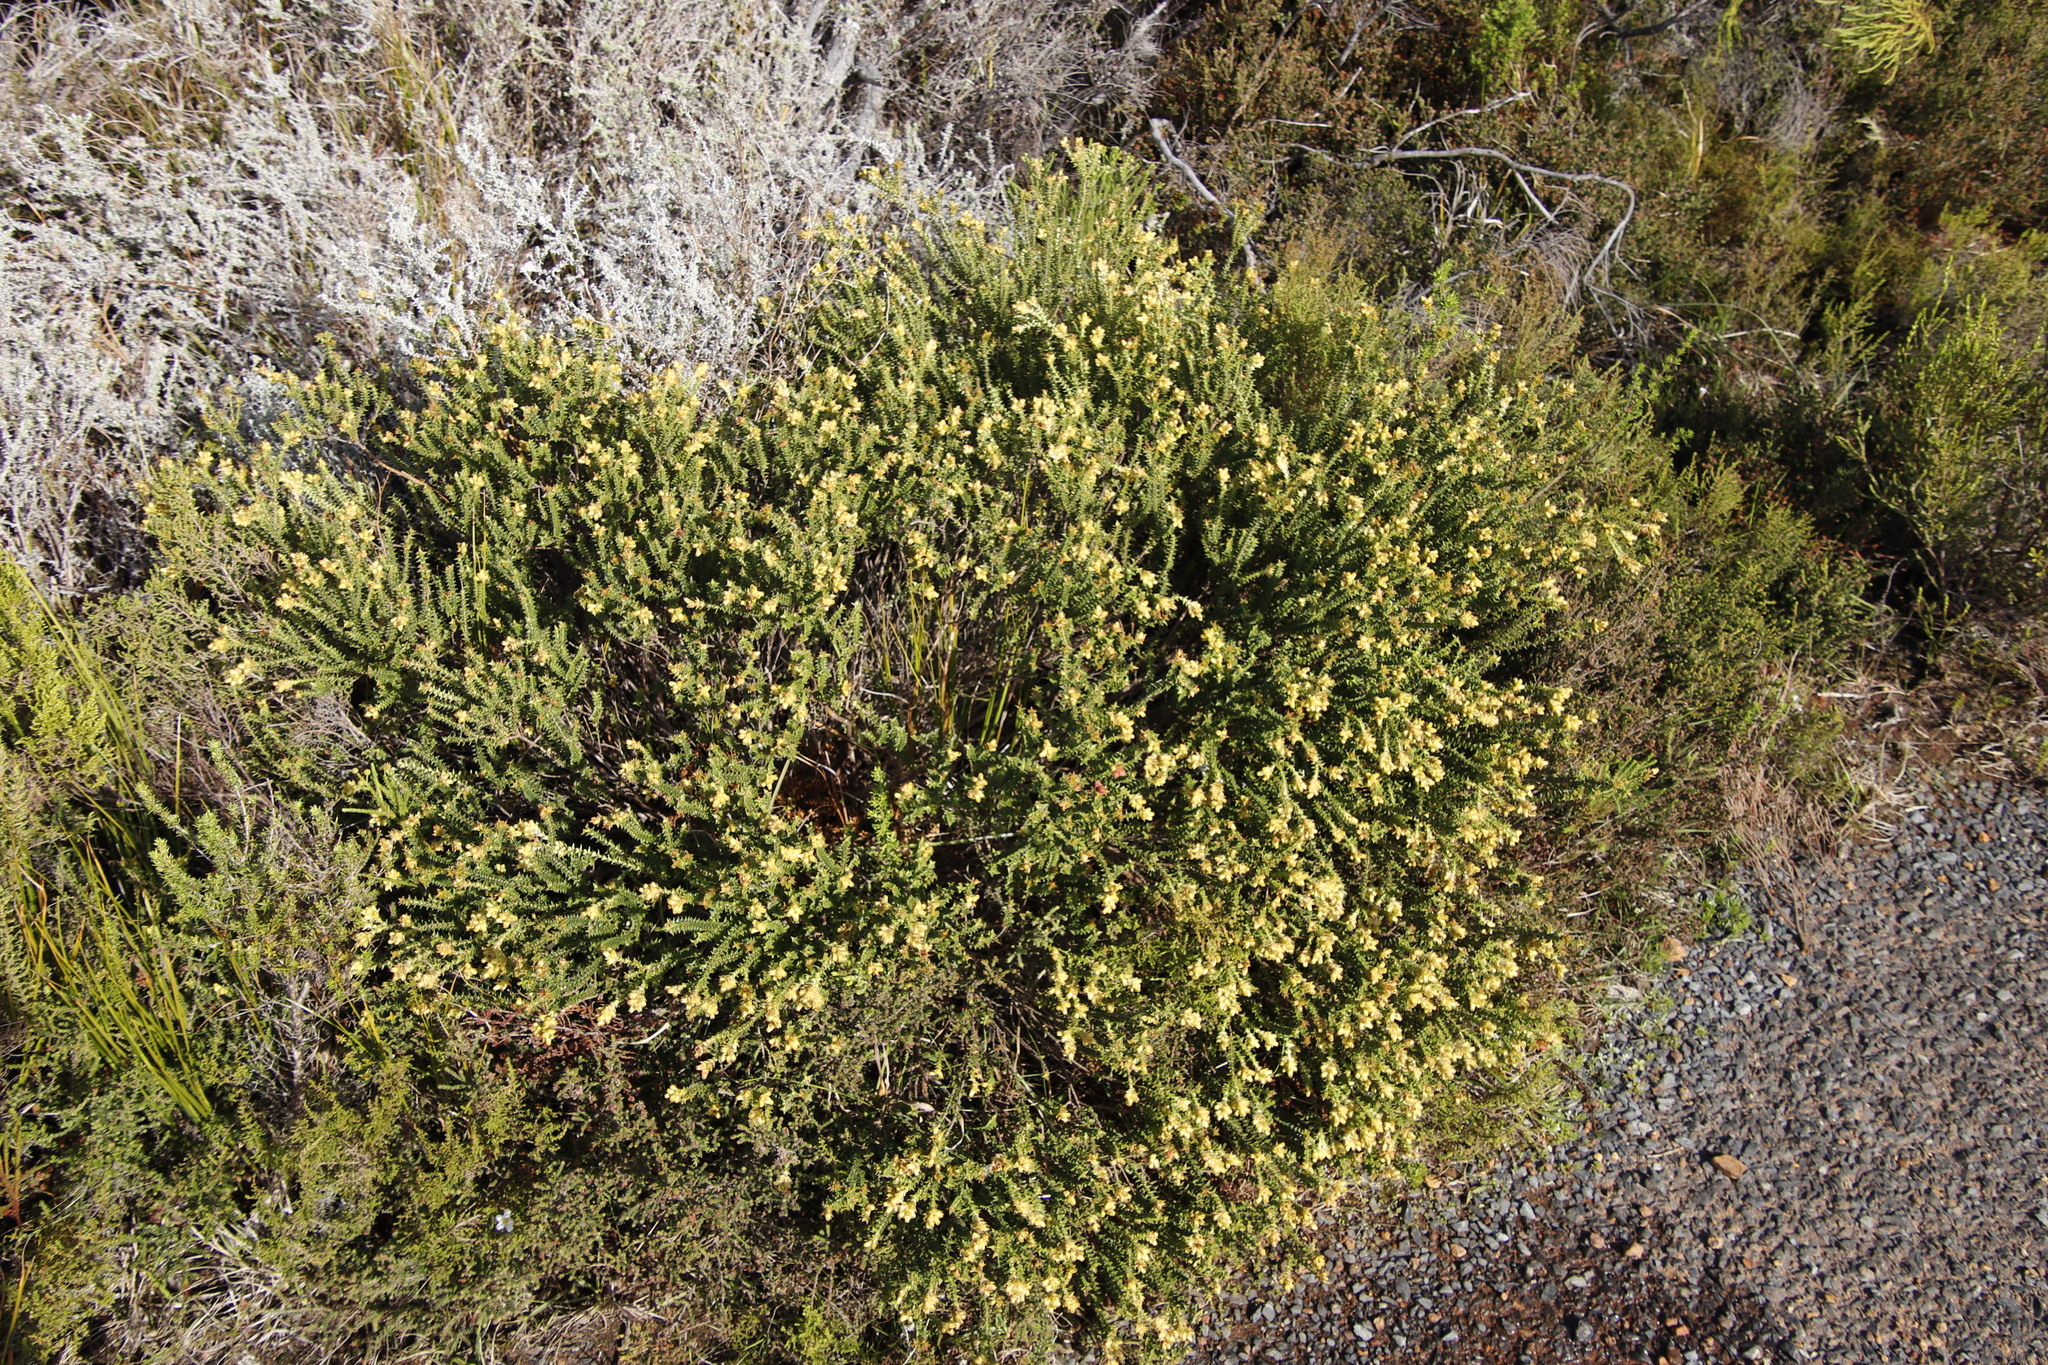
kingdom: Plantae
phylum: Tracheophyta
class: Magnoliopsida
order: Myrtales
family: Penaeaceae
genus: Penaea
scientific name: Penaea mucronata
